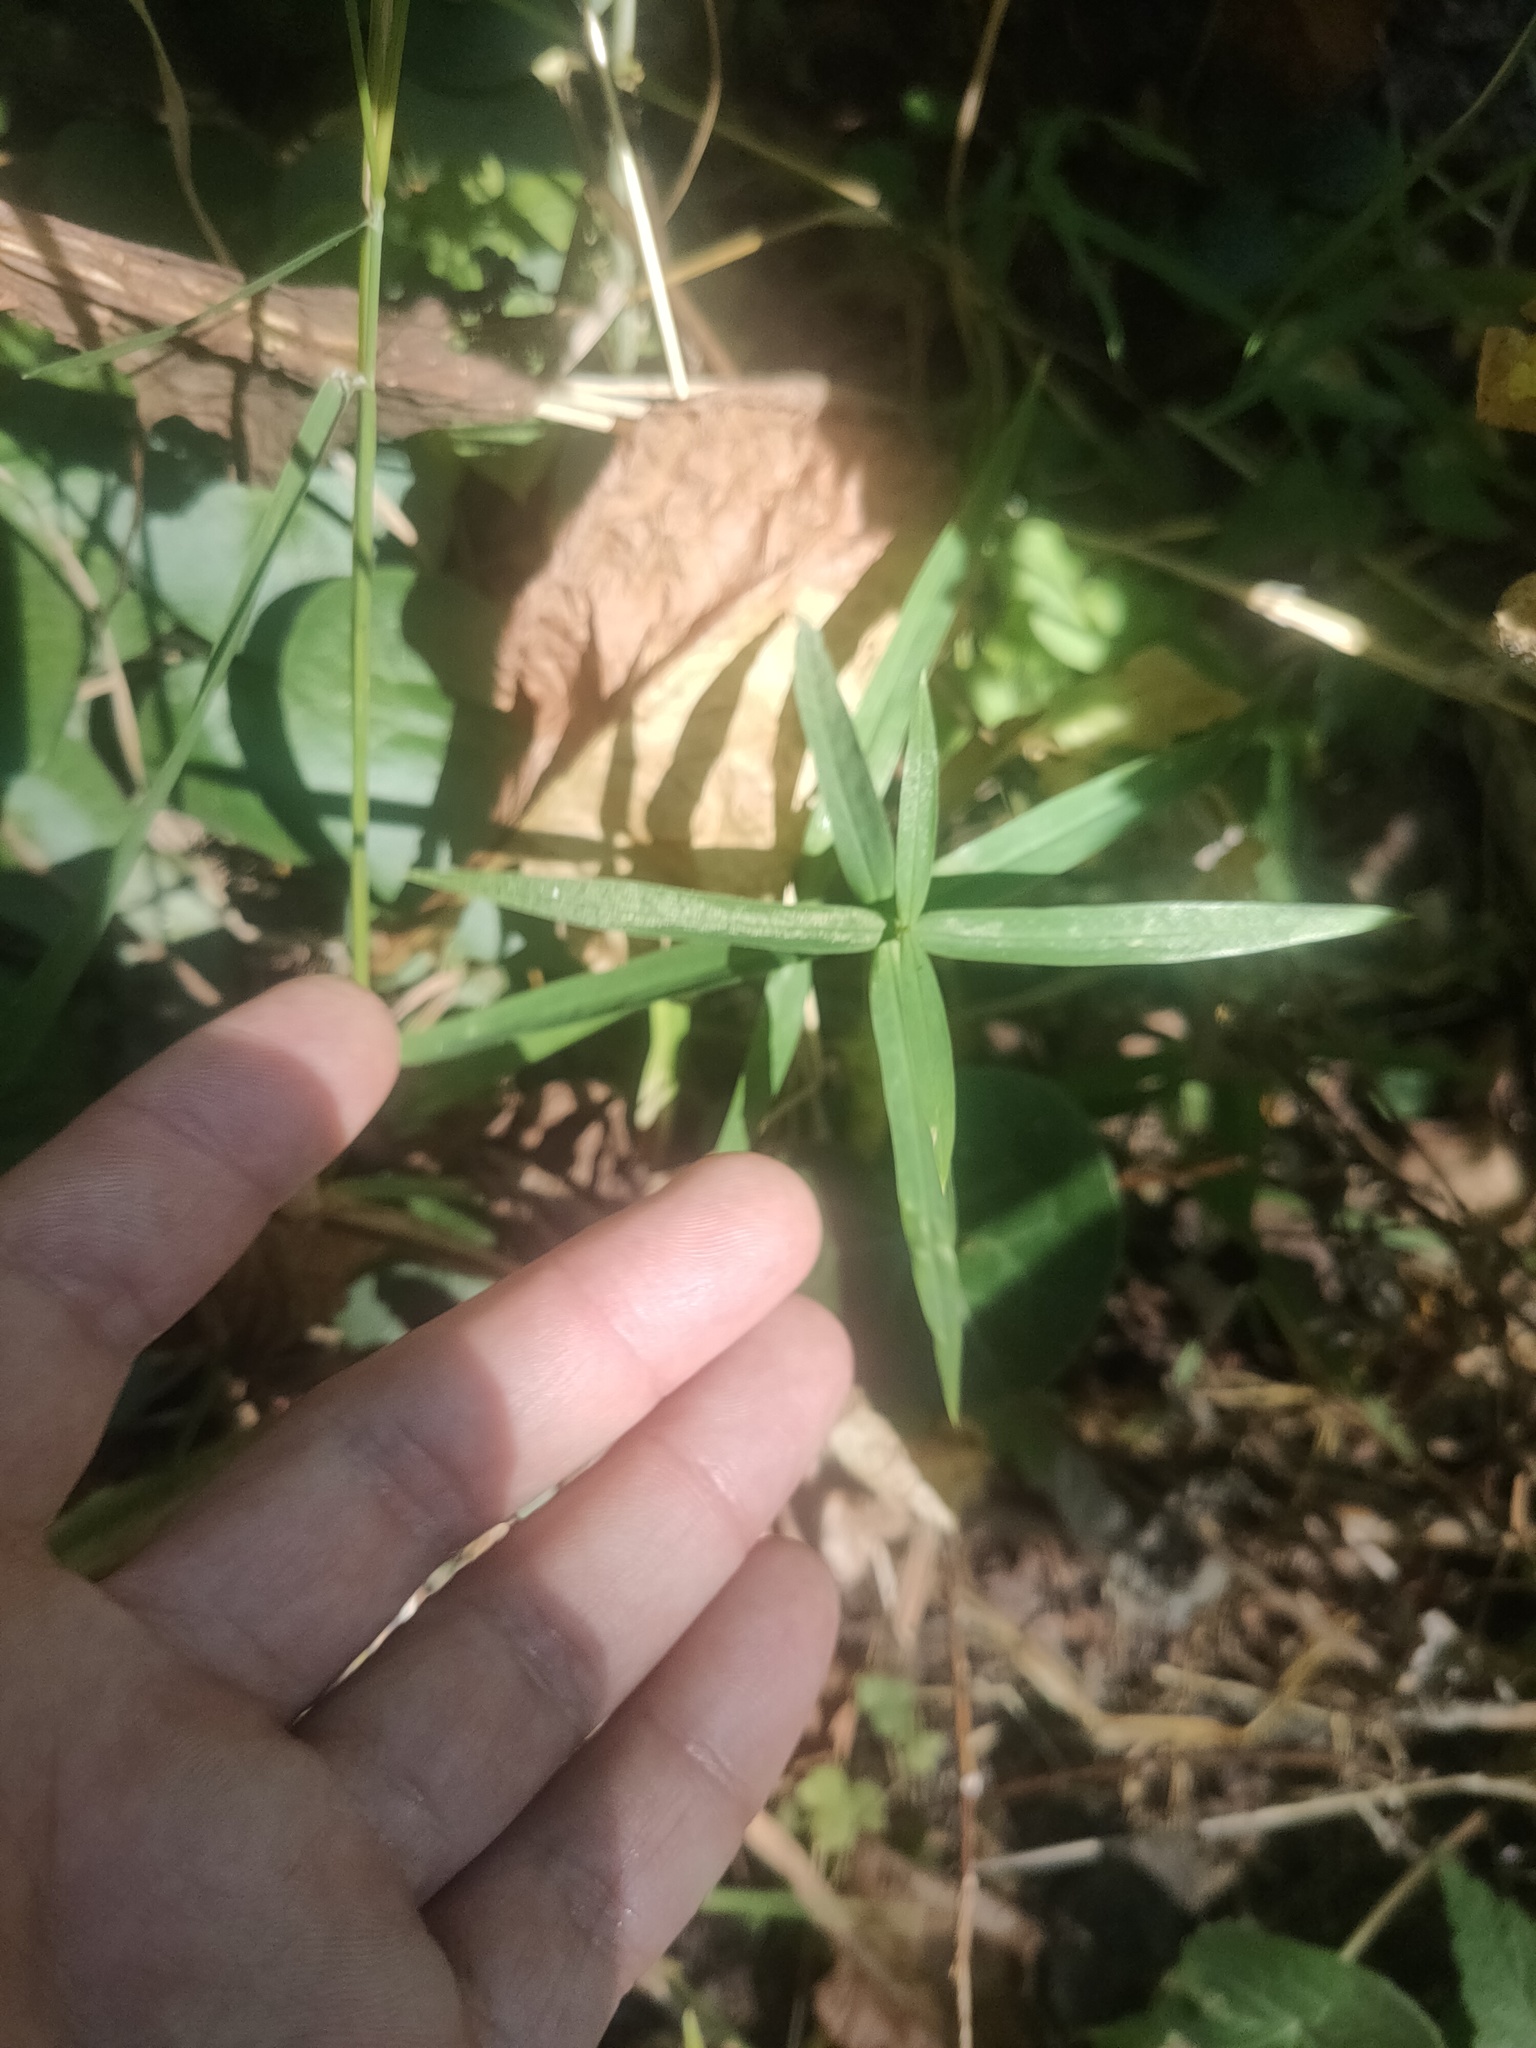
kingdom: Plantae
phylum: Tracheophyta
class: Magnoliopsida
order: Caryophyllales
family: Caryophyllaceae
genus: Rabelera
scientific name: Rabelera holostea
